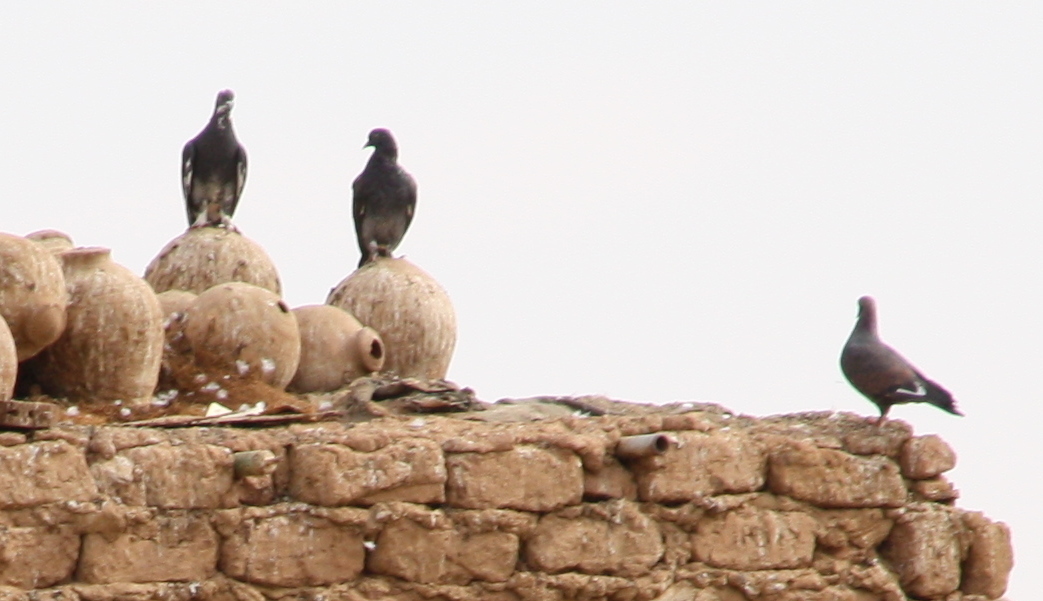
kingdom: Animalia
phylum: Chordata
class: Aves
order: Columbiformes
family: Columbidae
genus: Columba
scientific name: Columba livia
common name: Rock pigeon
